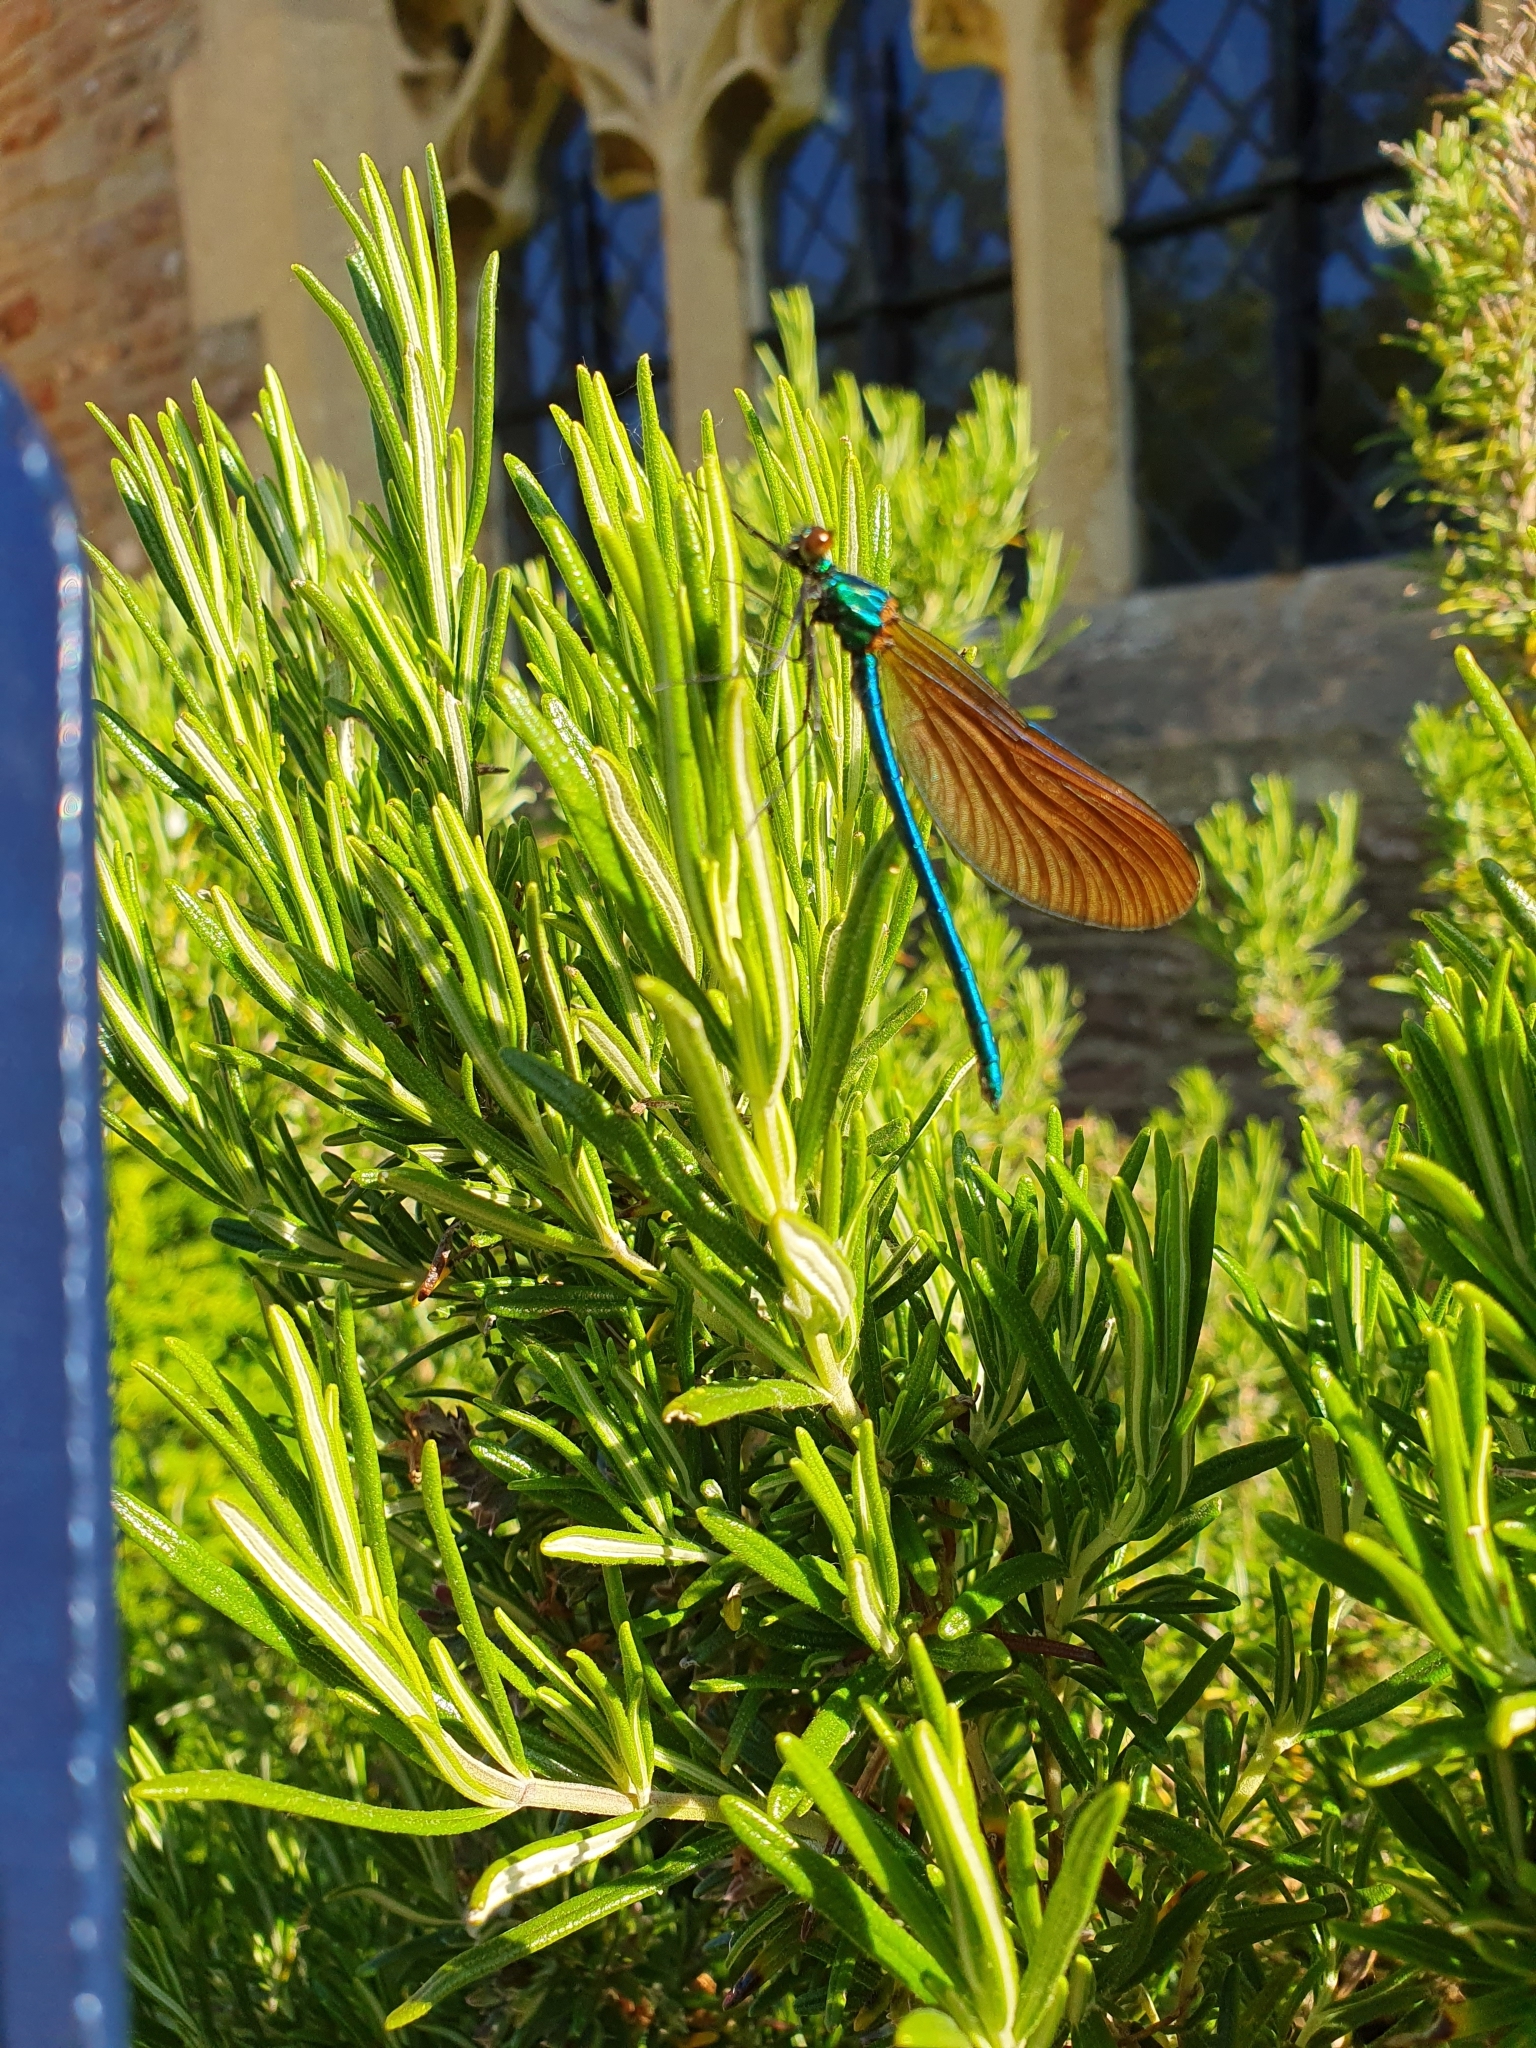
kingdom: Animalia
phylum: Arthropoda
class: Insecta
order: Odonata
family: Calopterygidae
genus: Calopteryx
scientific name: Calopteryx virgo
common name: Beautiful demoiselle
